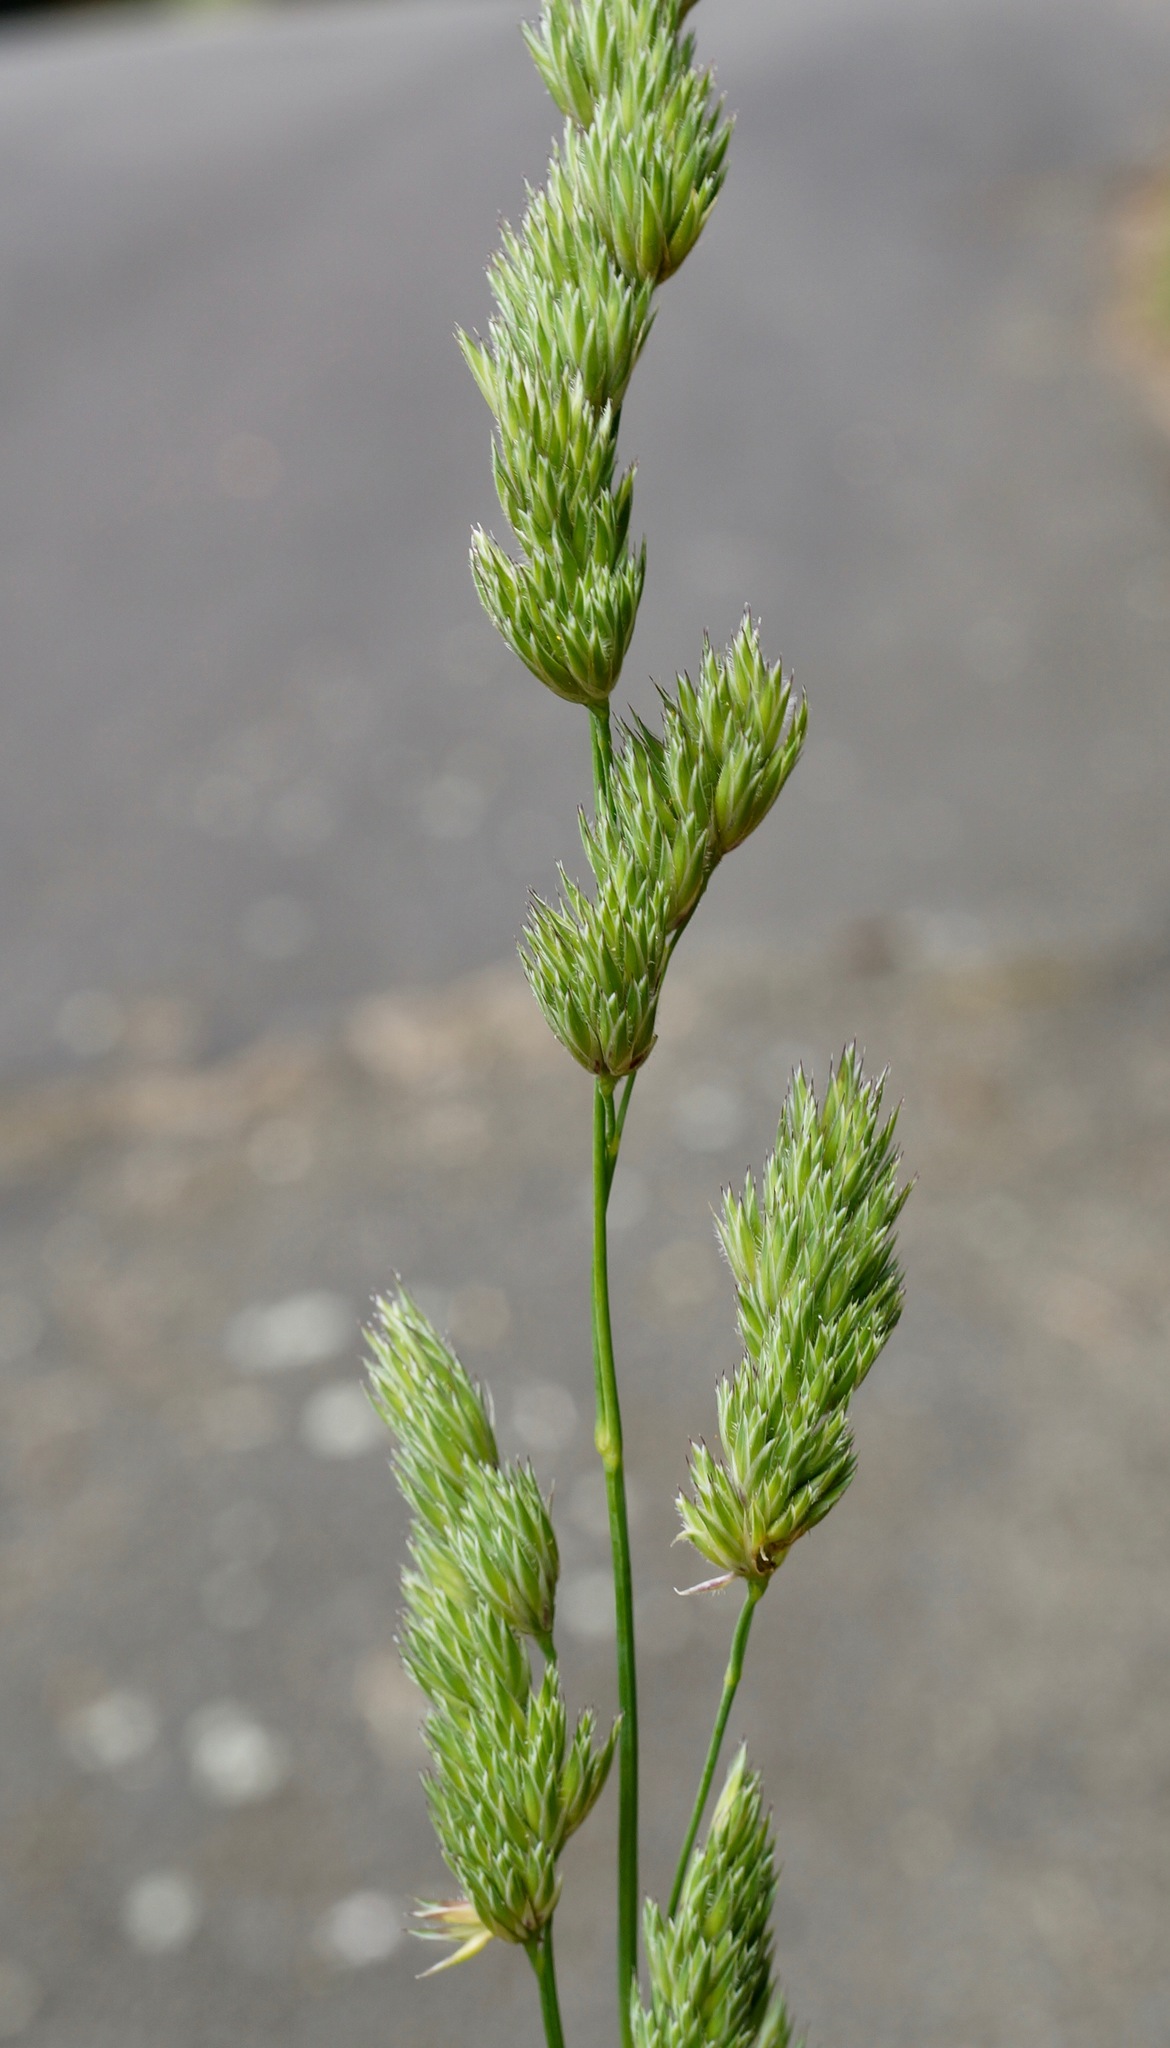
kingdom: Plantae
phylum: Tracheophyta
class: Liliopsida
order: Poales
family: Poaceae
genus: Dactylis
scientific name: Dactylis glomerata
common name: Orchardgrass
